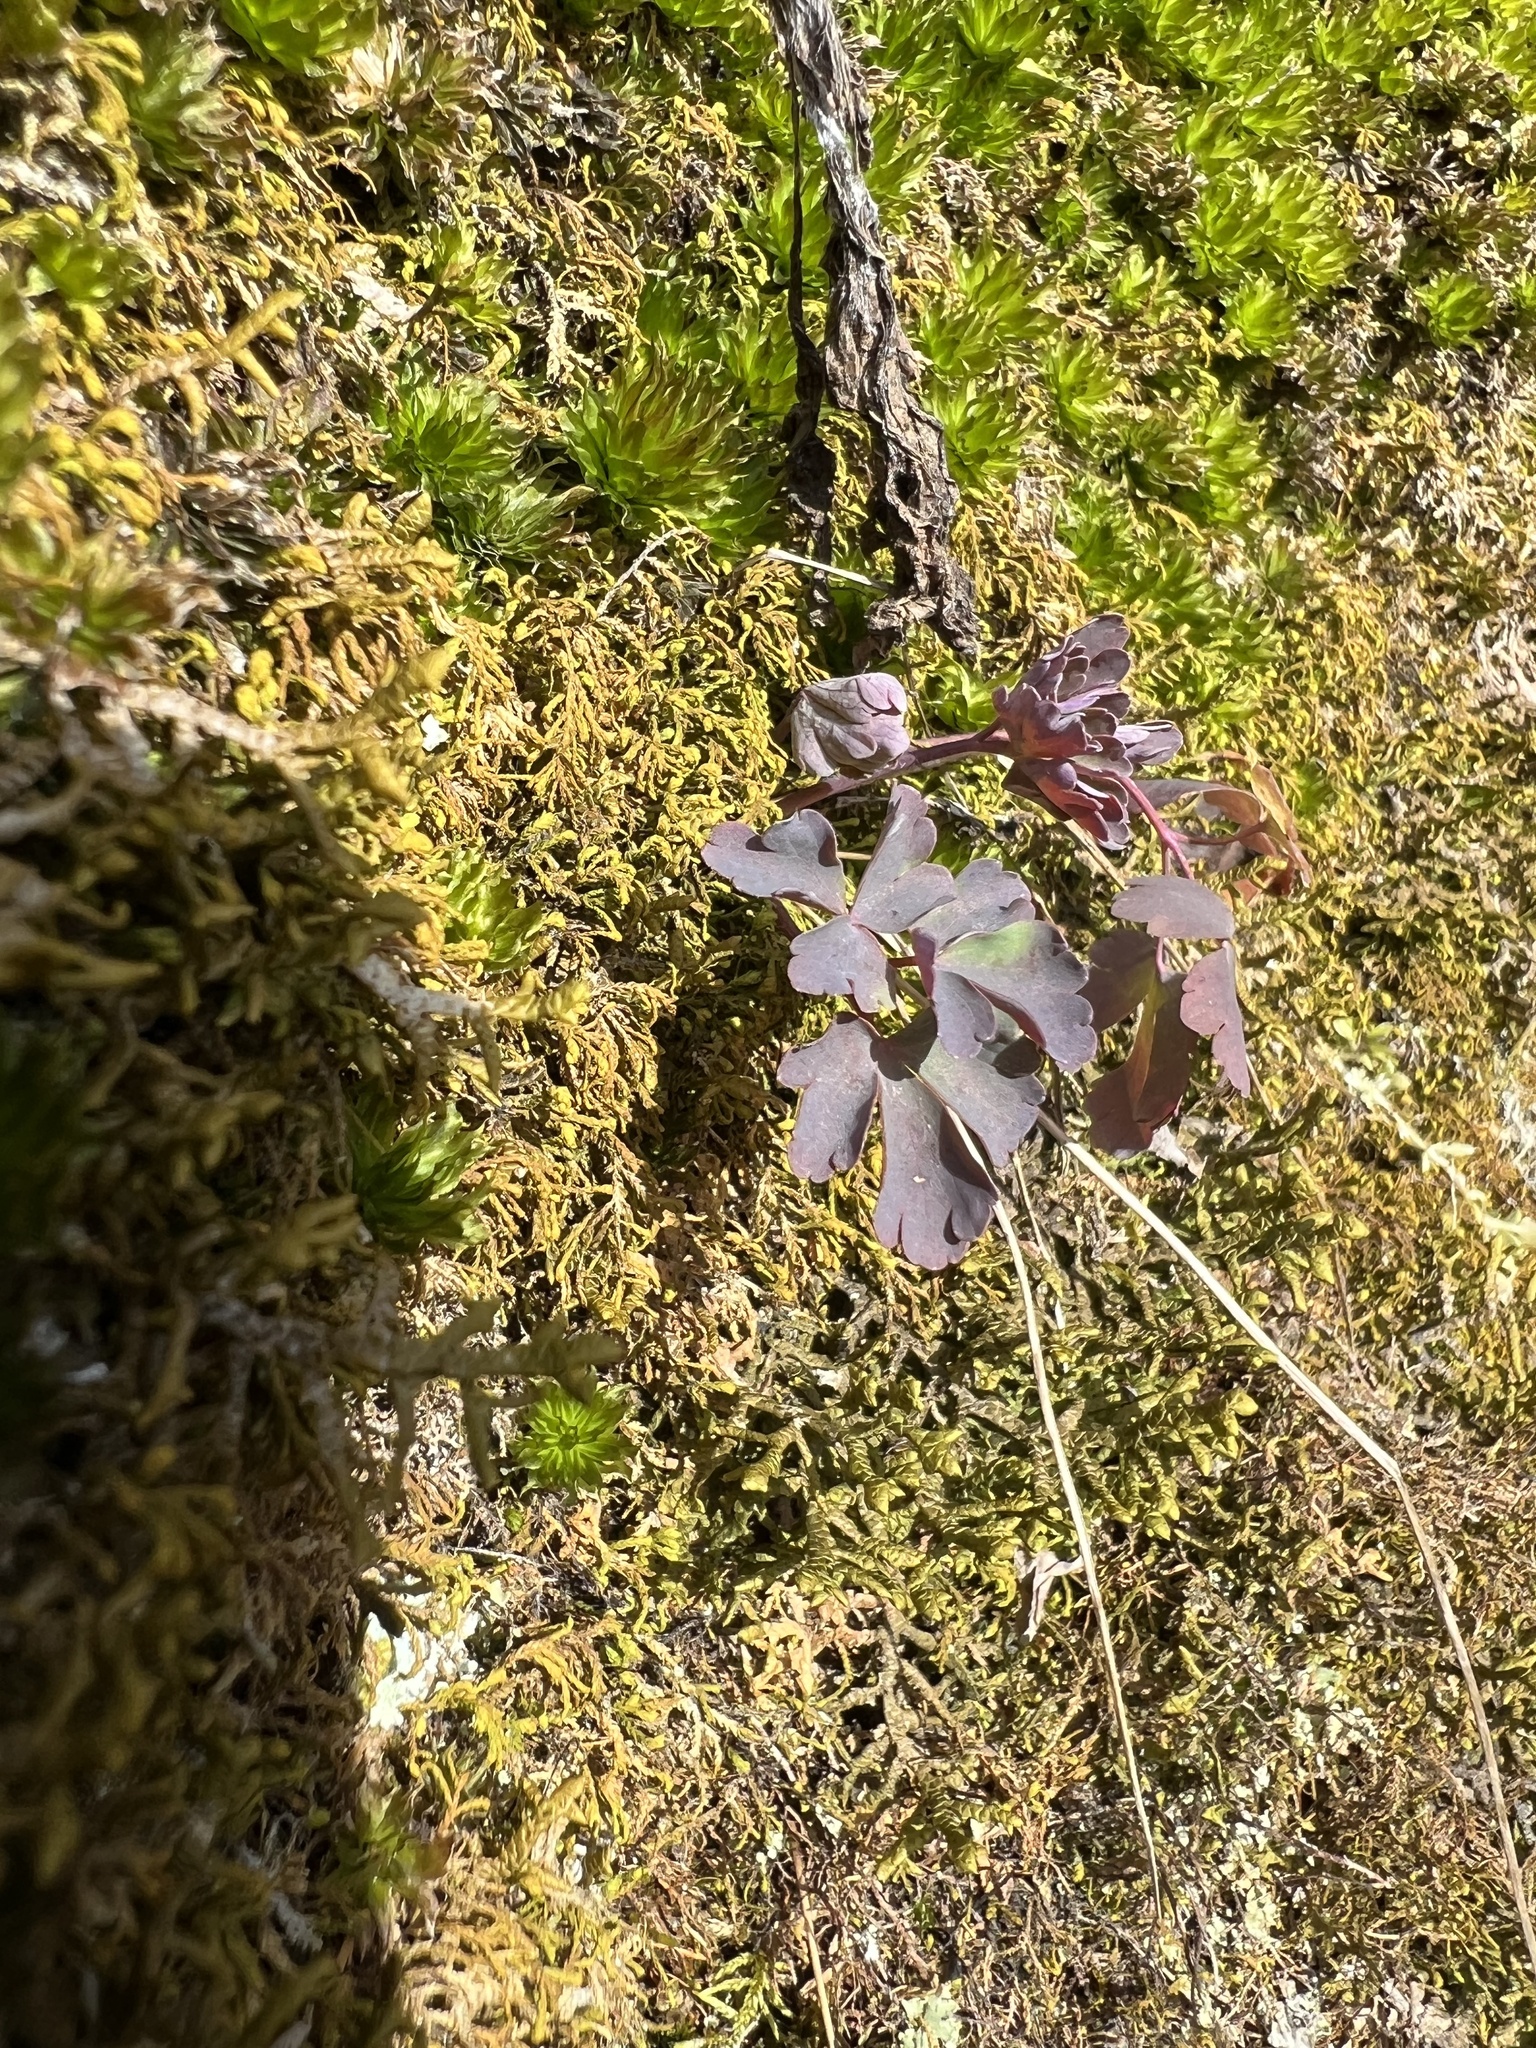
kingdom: Plantae
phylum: Tracheophyta
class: Magnoliopsida
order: Ranunculales
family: Ranunculaceae
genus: Aquilegia
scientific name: Aquilegia canadensis
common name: American columbine
